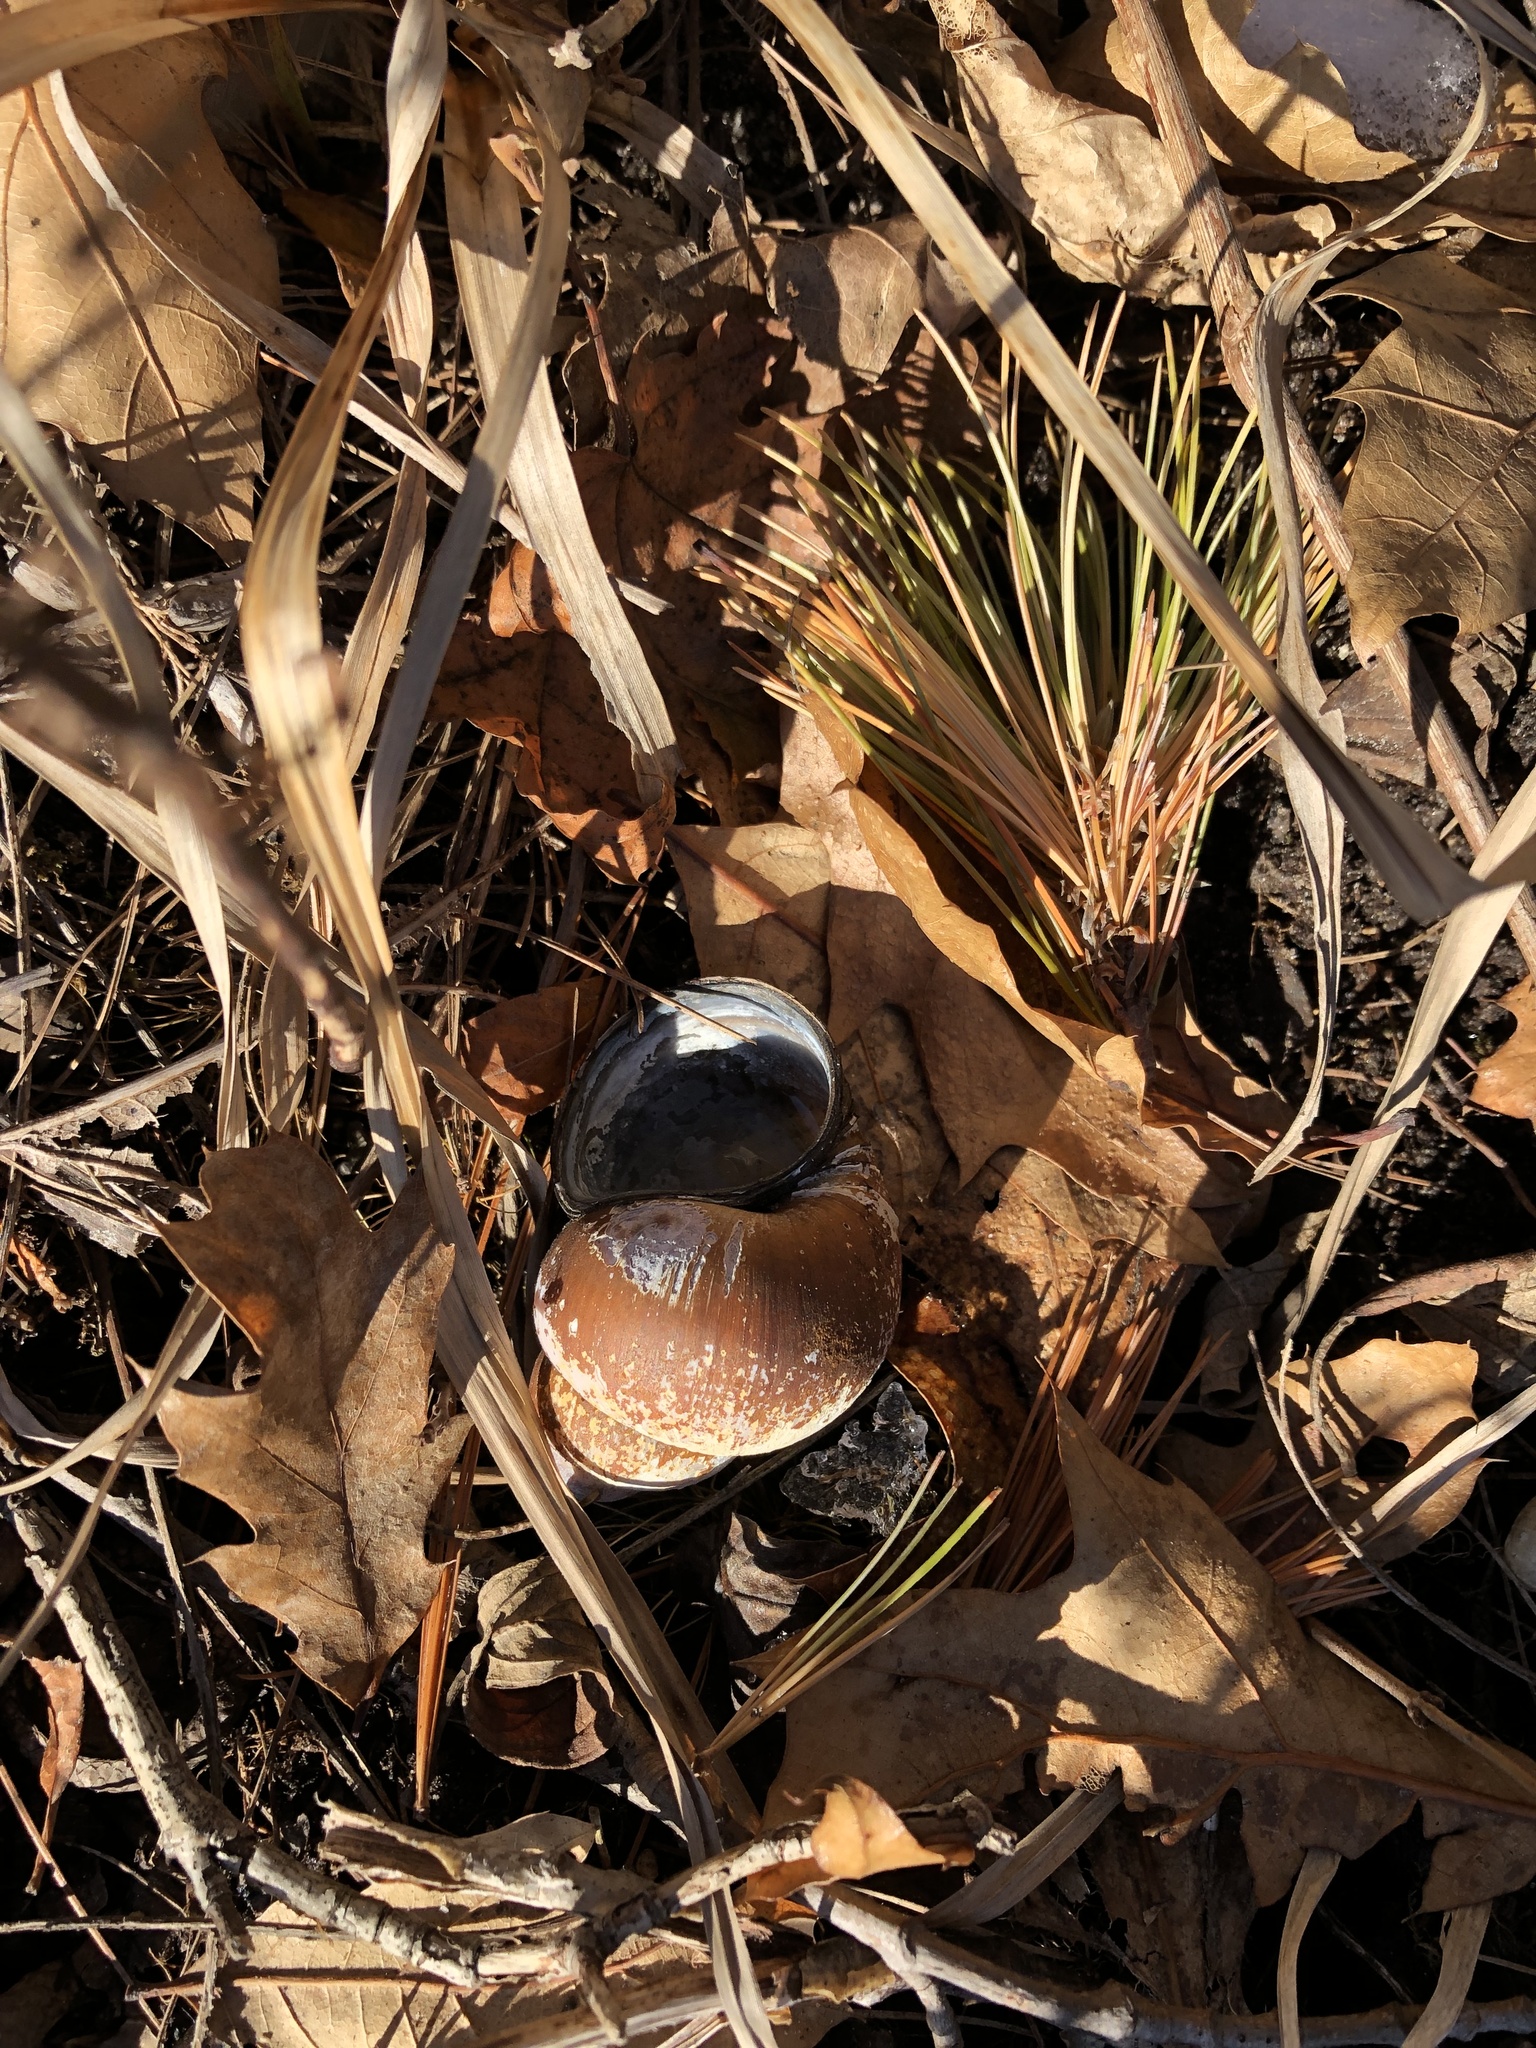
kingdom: Animalia
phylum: Mollusca
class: Gastropoda
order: Architaenioglossa
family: Viviparidae
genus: Cipangopaludina
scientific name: Cipangopaludina chinensis
